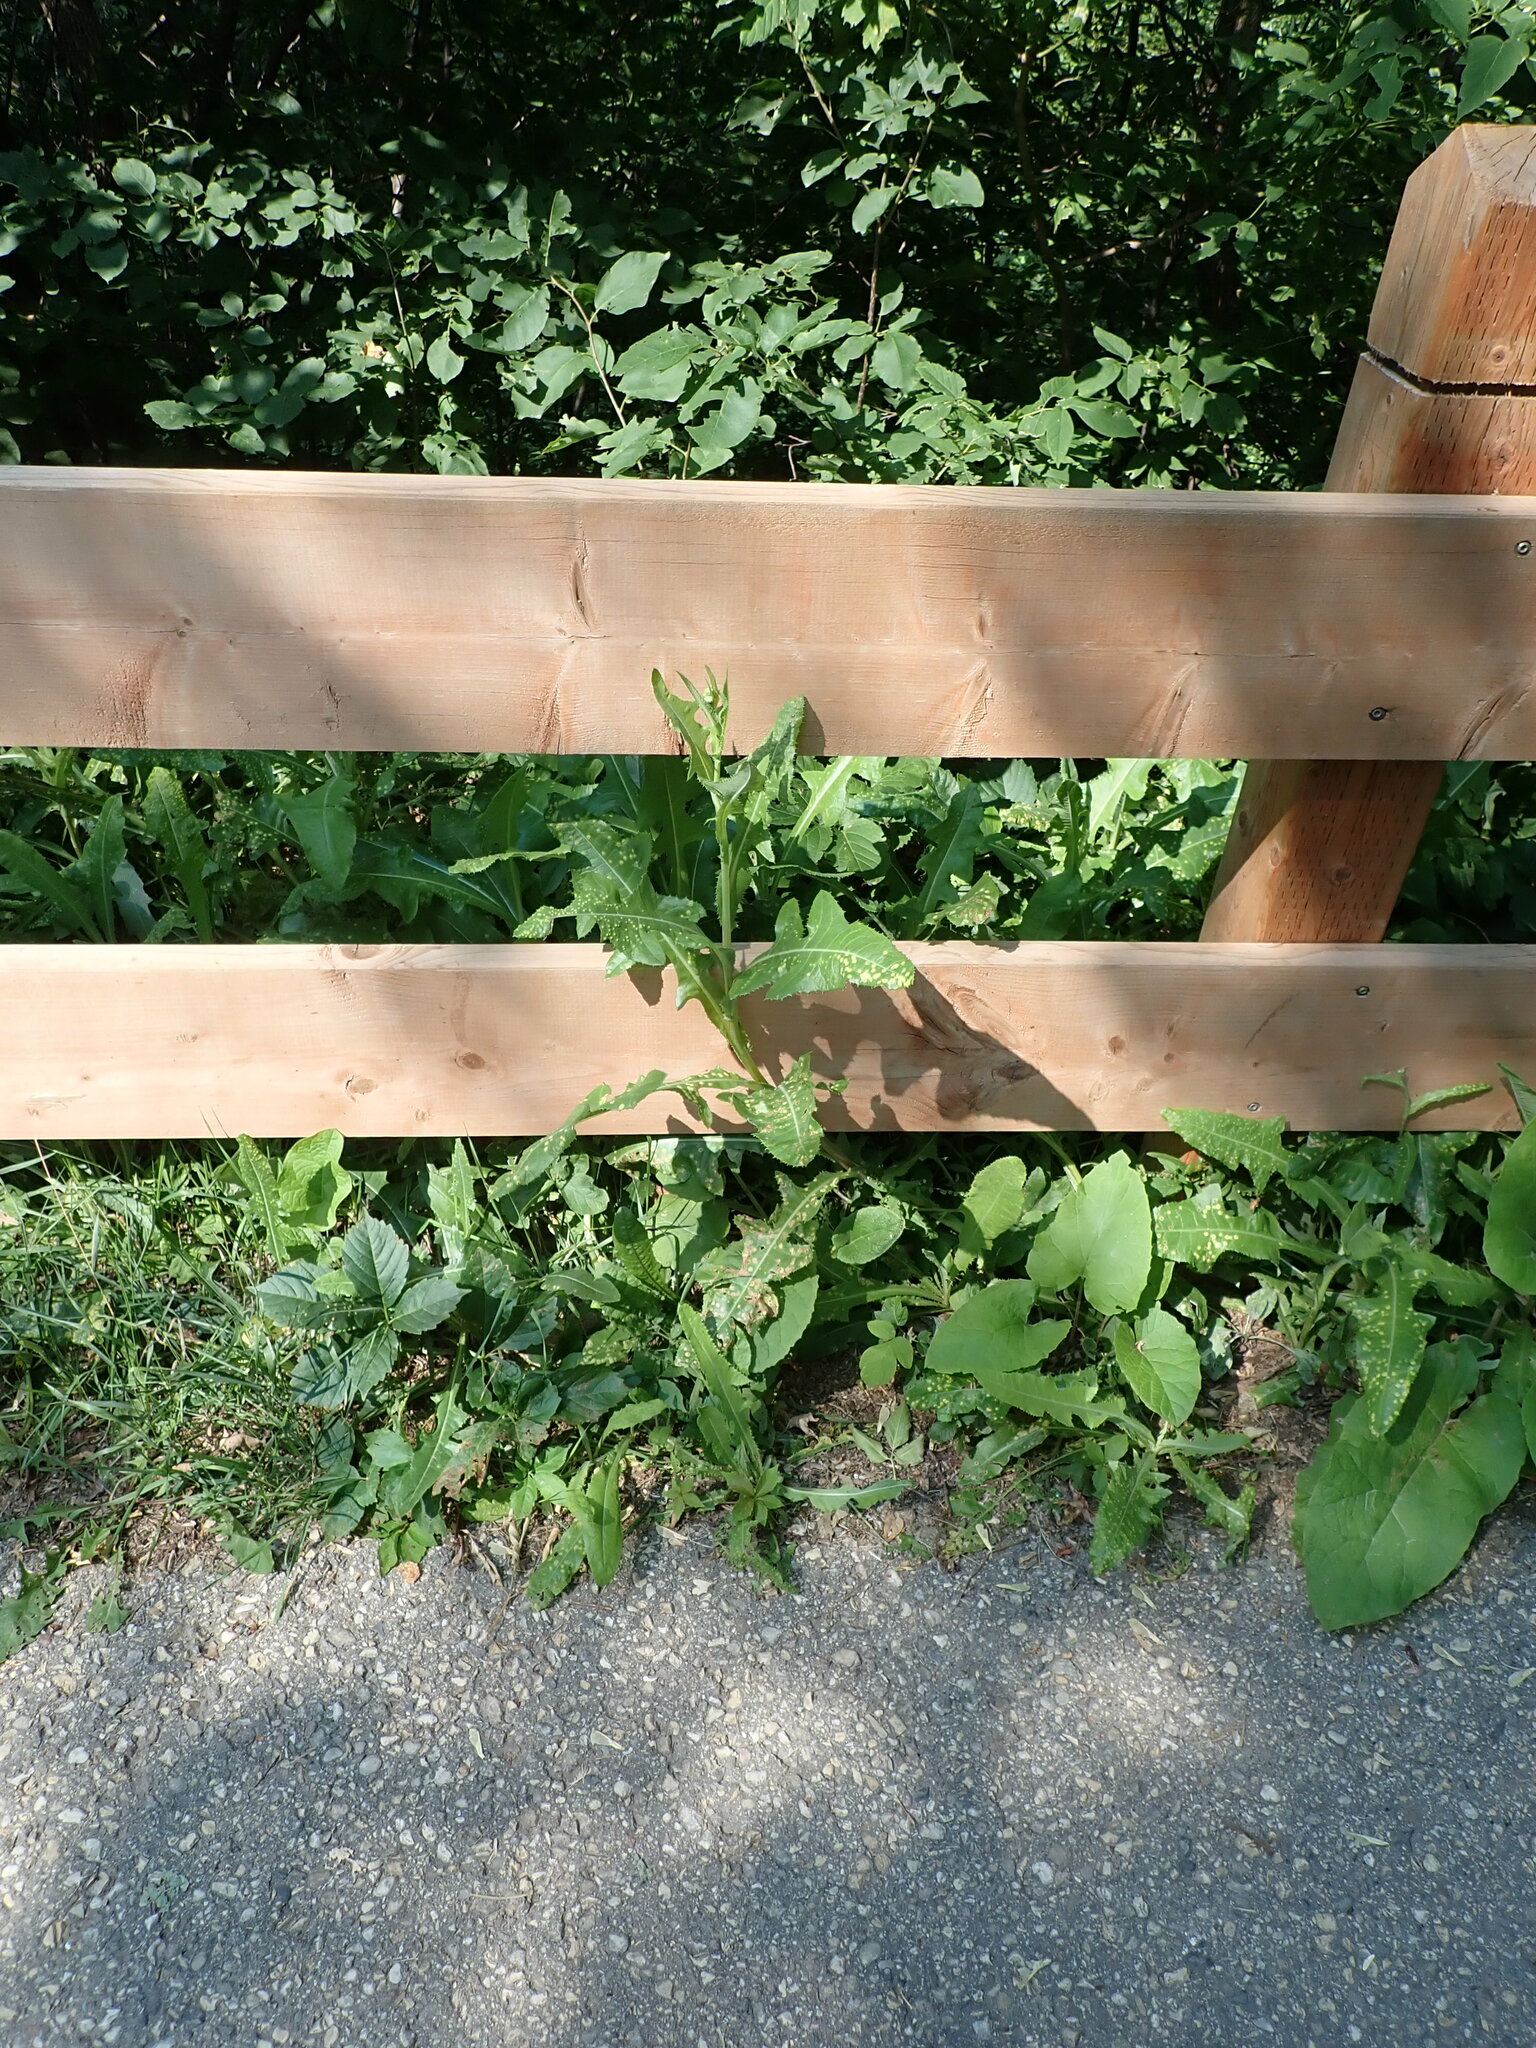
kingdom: Animalia
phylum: Arthropoda
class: Insecta
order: Diptera
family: Cecidomyiidae
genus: Cystiphora
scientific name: Cystiphora sonchi
